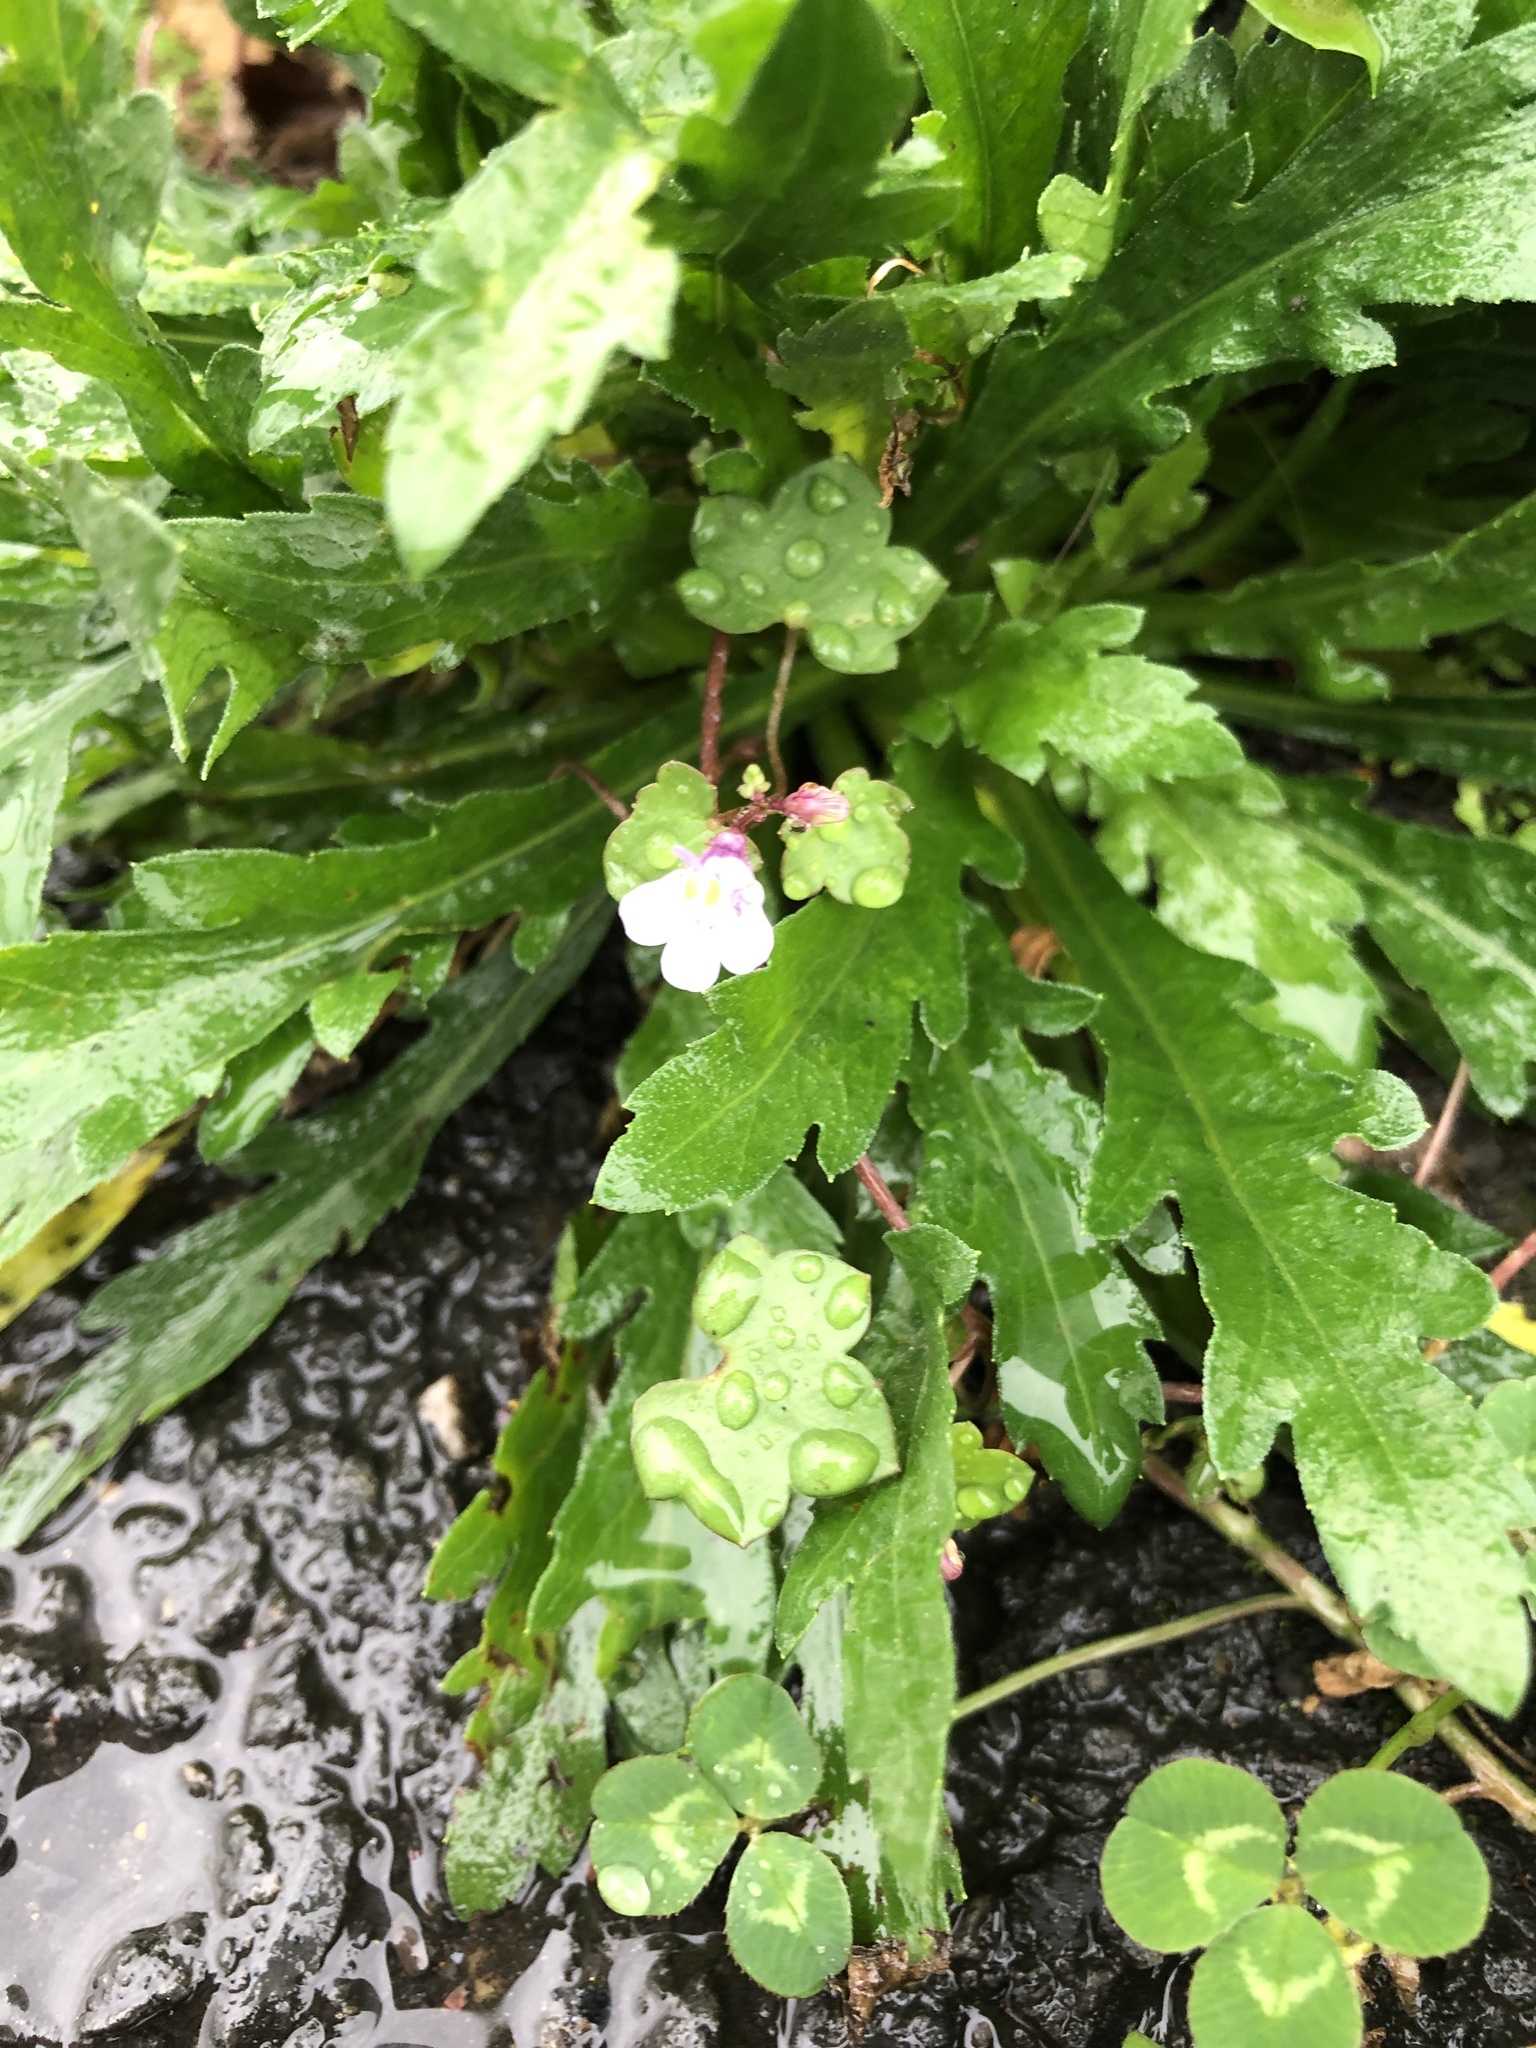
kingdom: Plantae
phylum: Tracheophyta
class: Magnoliopsida
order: Lamiales
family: Mazaceae
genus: Mazus
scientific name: Mazus pumilus
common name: Japanese mazus
